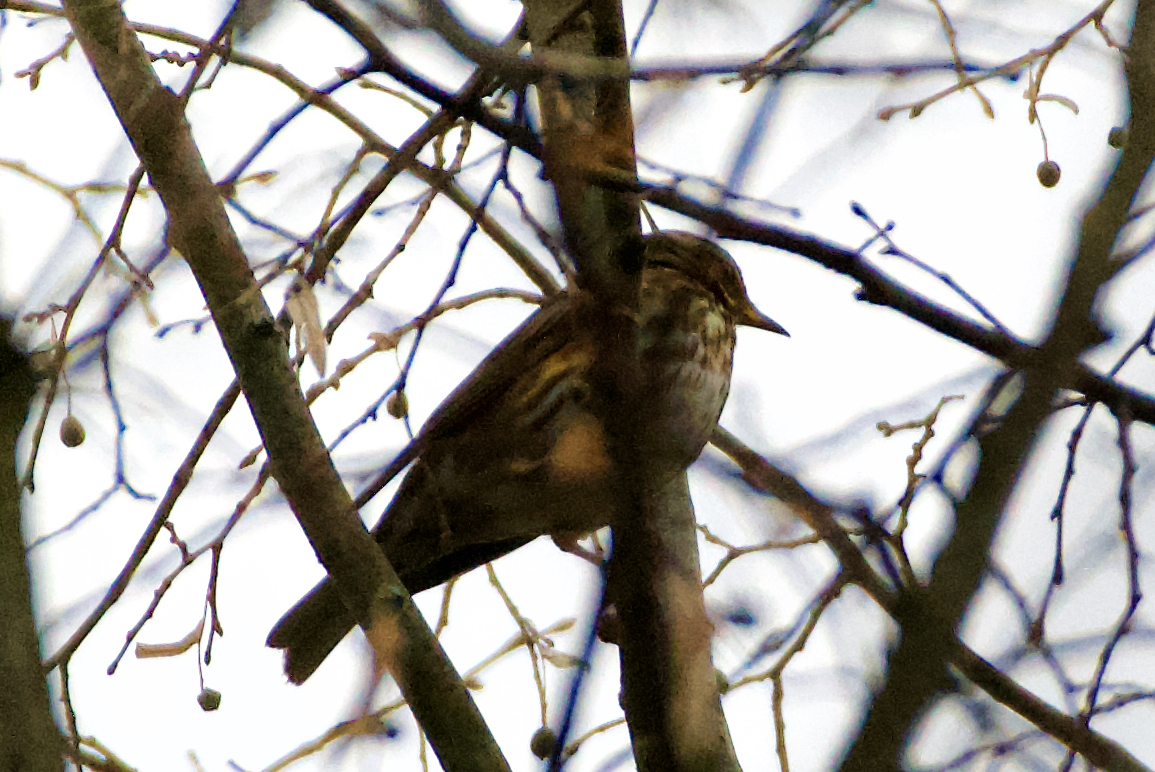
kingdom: Animalia
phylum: Chordata
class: Aves
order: Passeriformes
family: Turdidae
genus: Turdus
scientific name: Turdus iliacus
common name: Redwing
